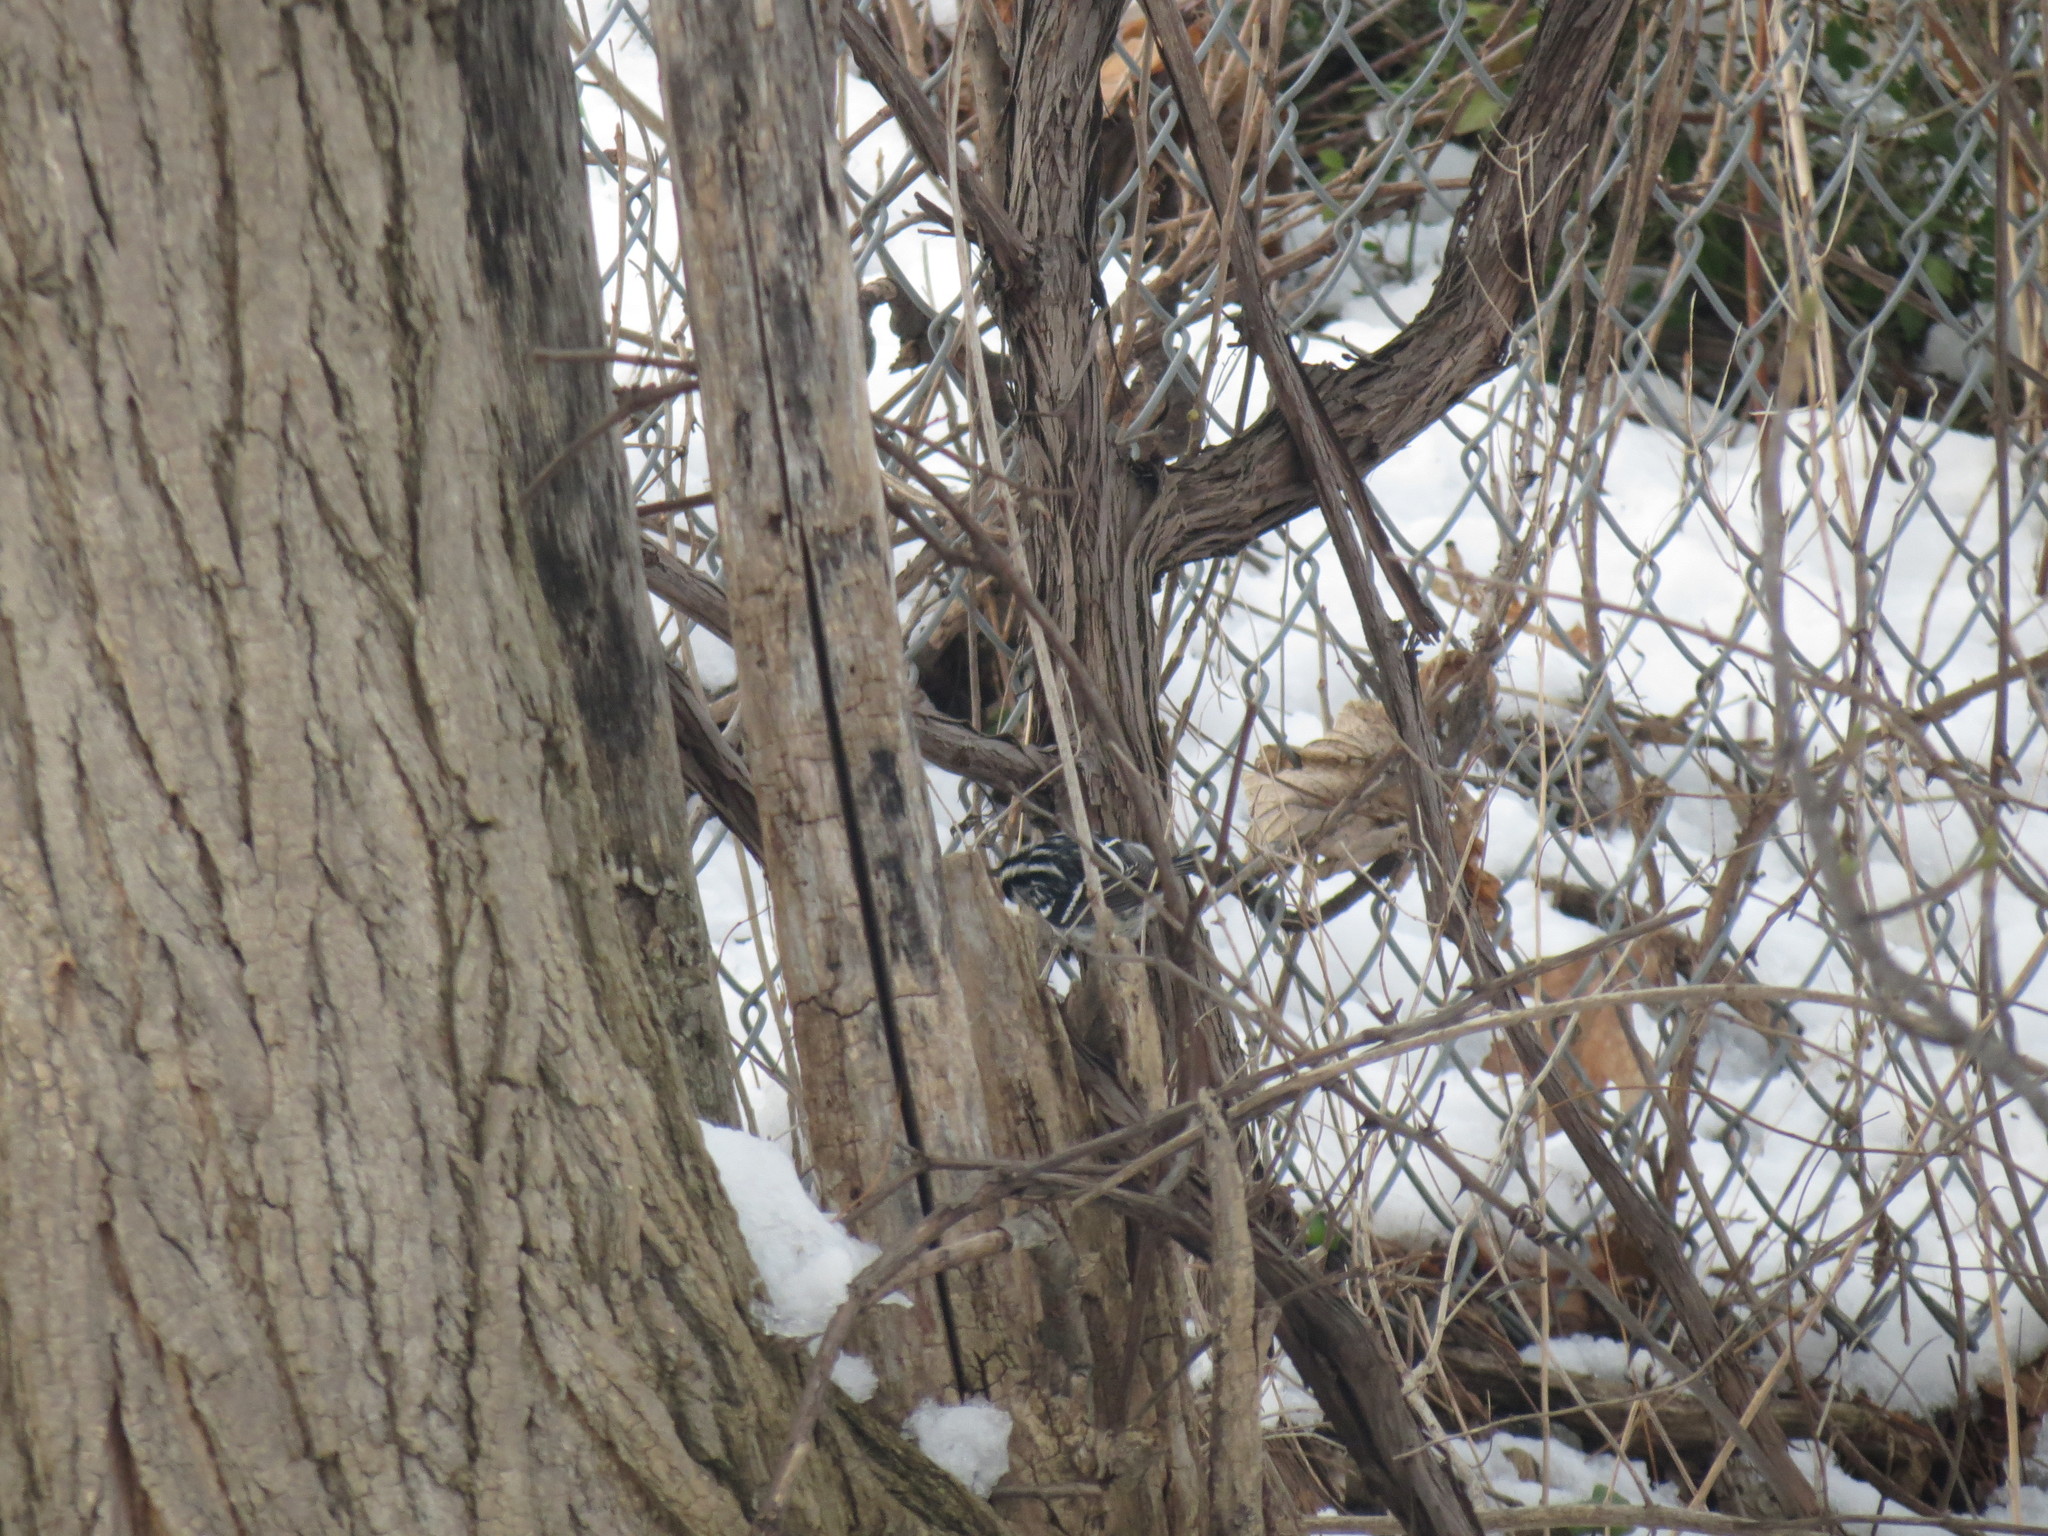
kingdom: Animalia
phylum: Chordata
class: Aves
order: Passeriformes
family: Parulidae
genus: Mniotilta
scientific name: Mniotilta varia
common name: Black-and-white warbler
